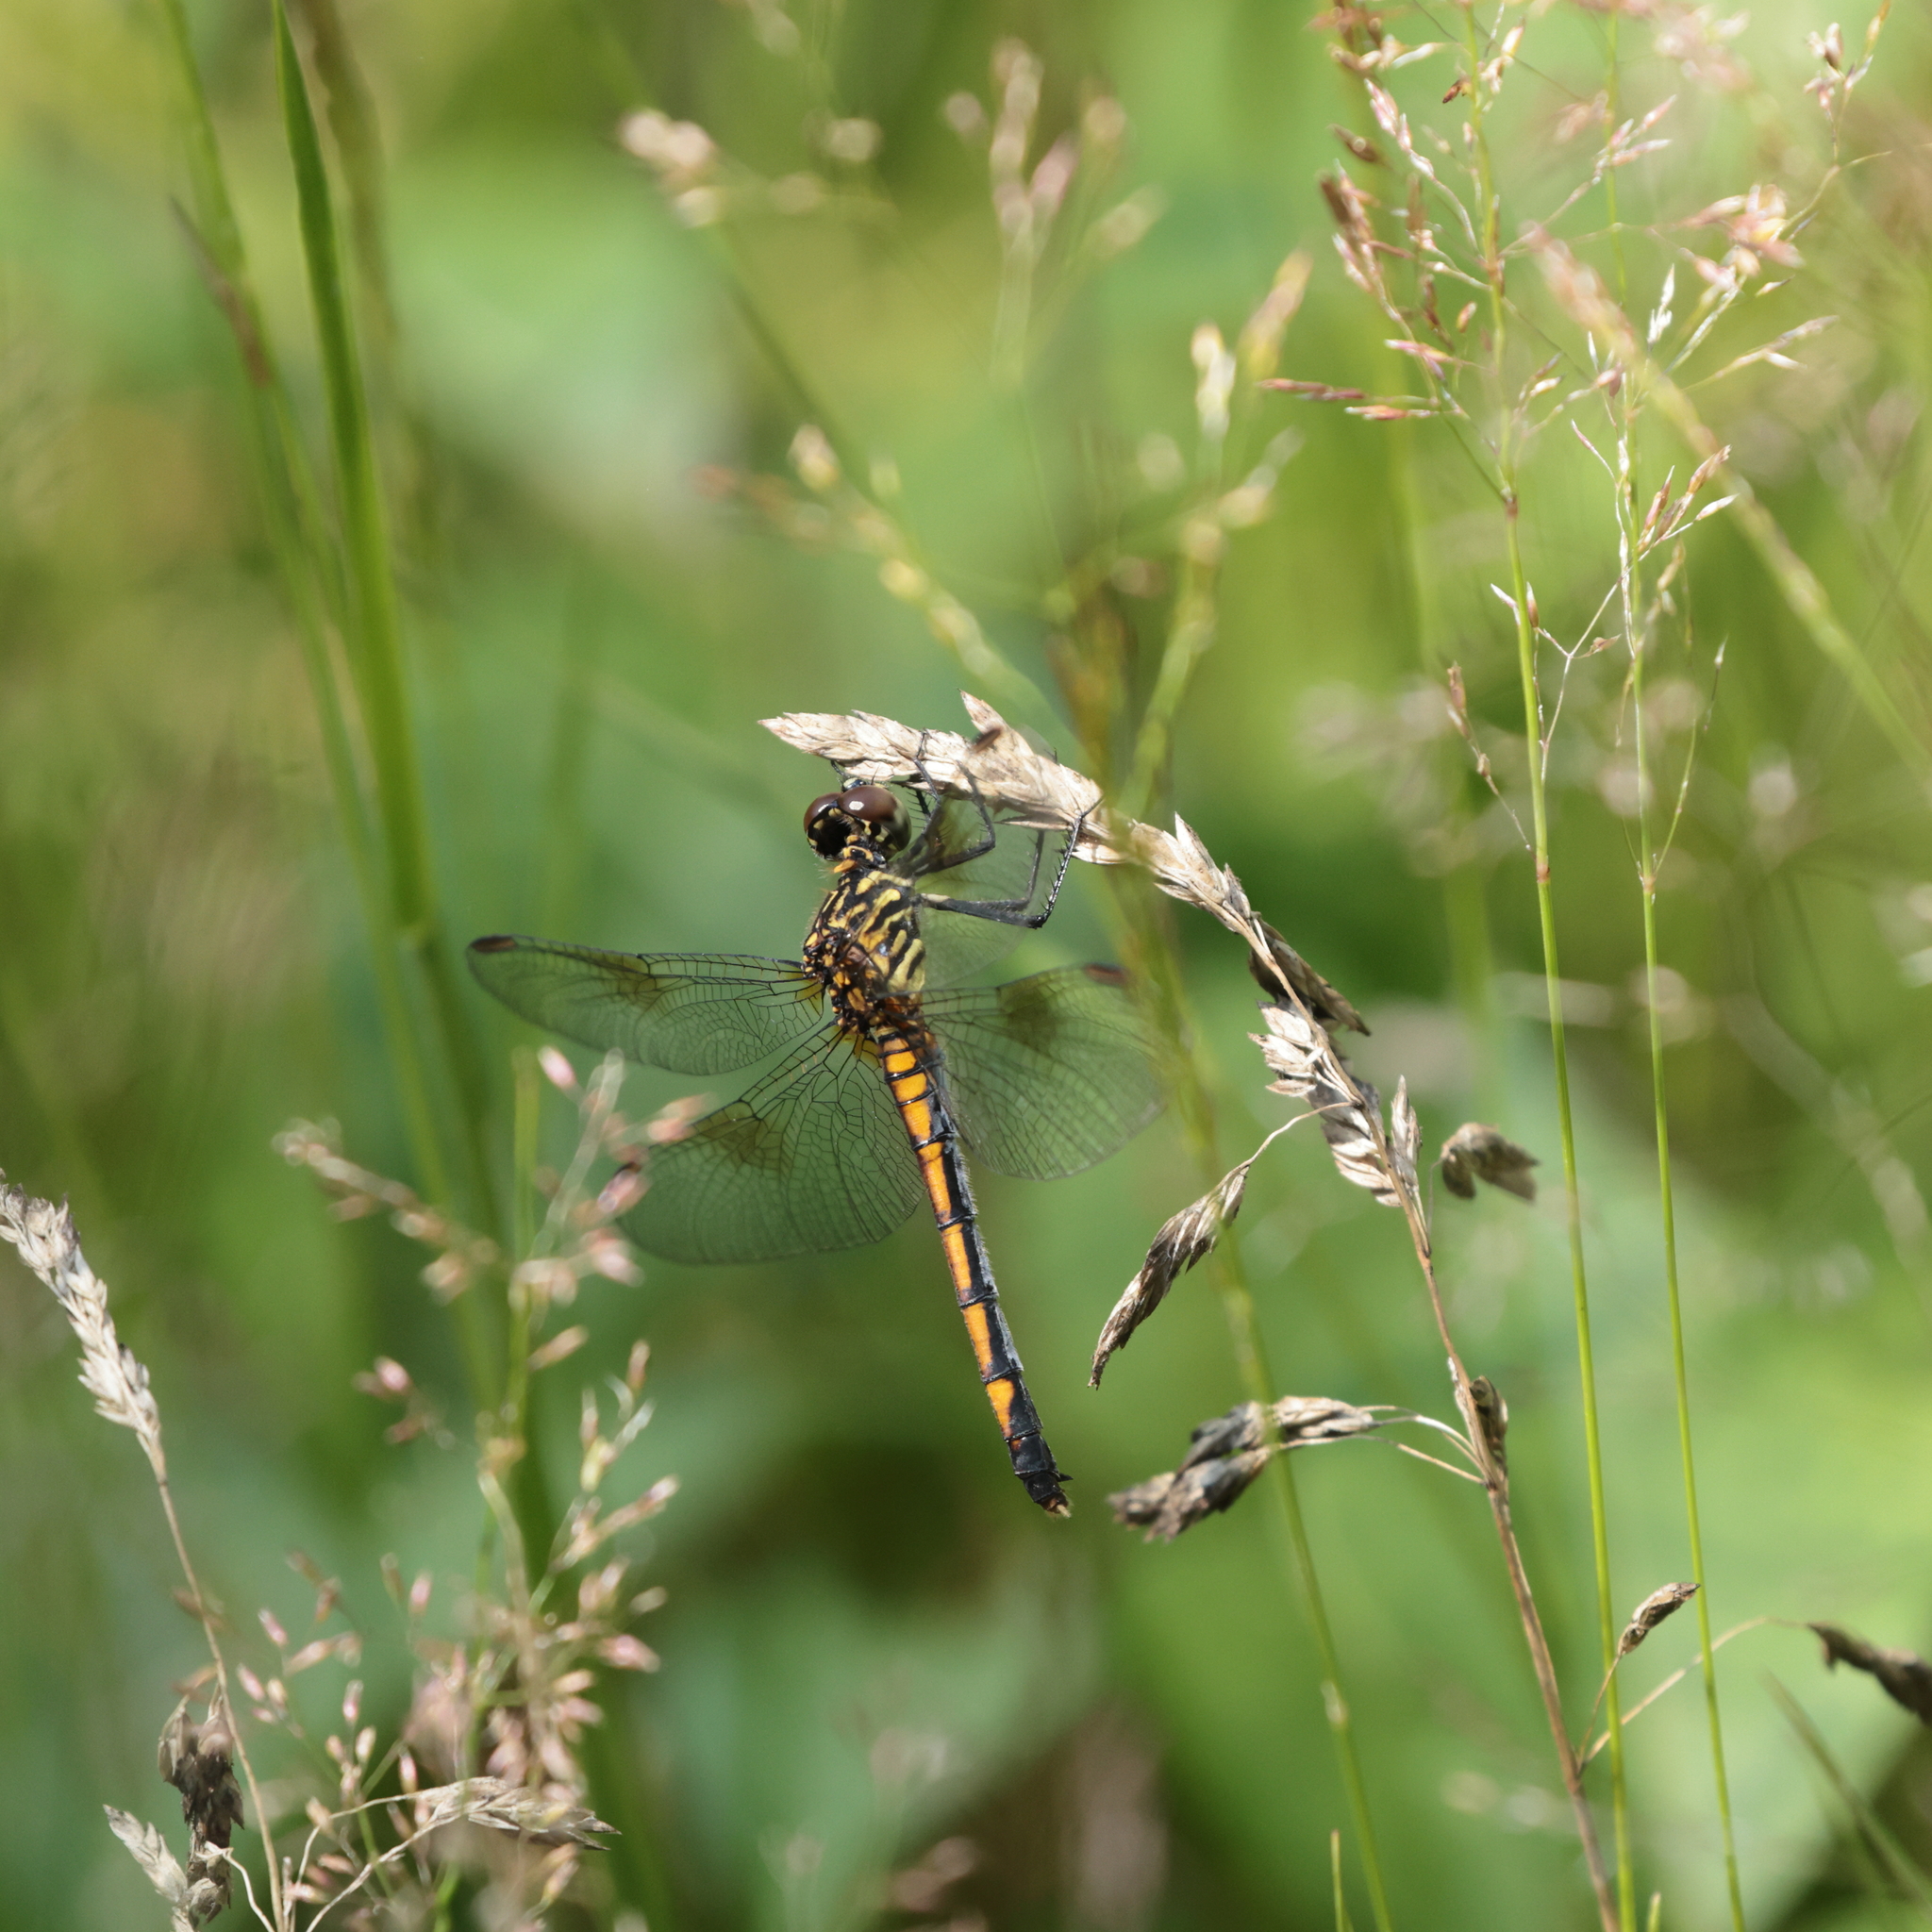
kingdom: Animalia
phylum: Arthropoda
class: Insecta
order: Odonata
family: Libellulidae
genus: Erythrodiplax
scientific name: Erythrodiplax berenice
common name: Seaside dragonlet
